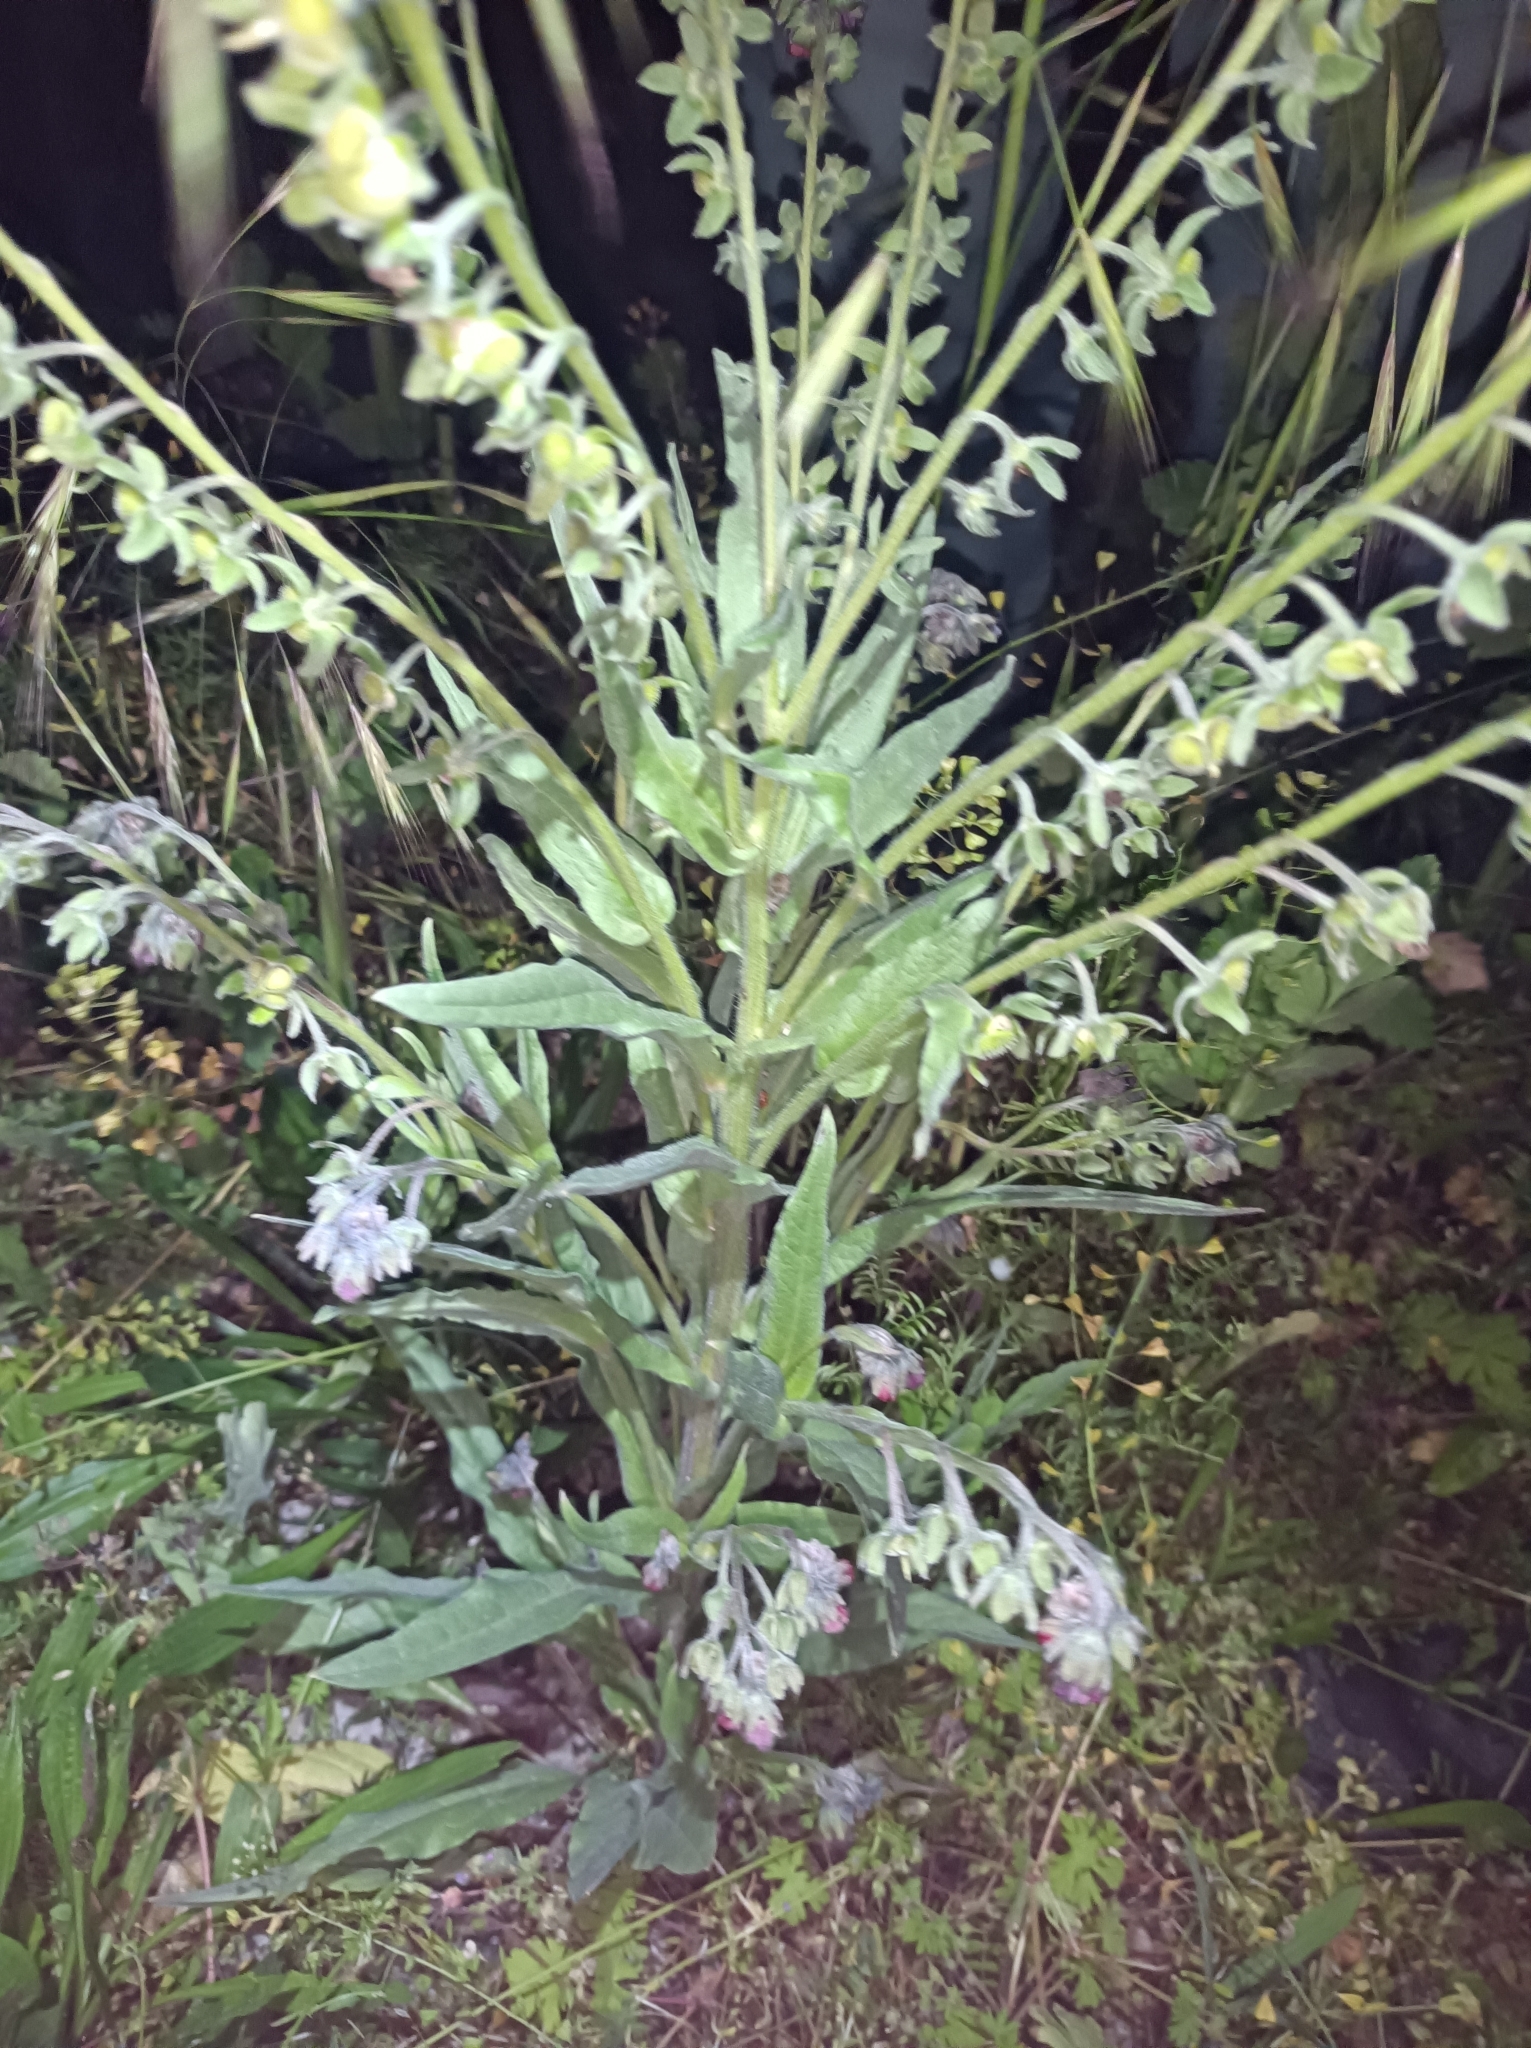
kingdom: Plantae
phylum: Tracheophyta
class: Magnoliopsida
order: Boraginales
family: Boraginaceae
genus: Cynoglossum
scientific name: Cynoglossum officinale
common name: Hound's-tongue
